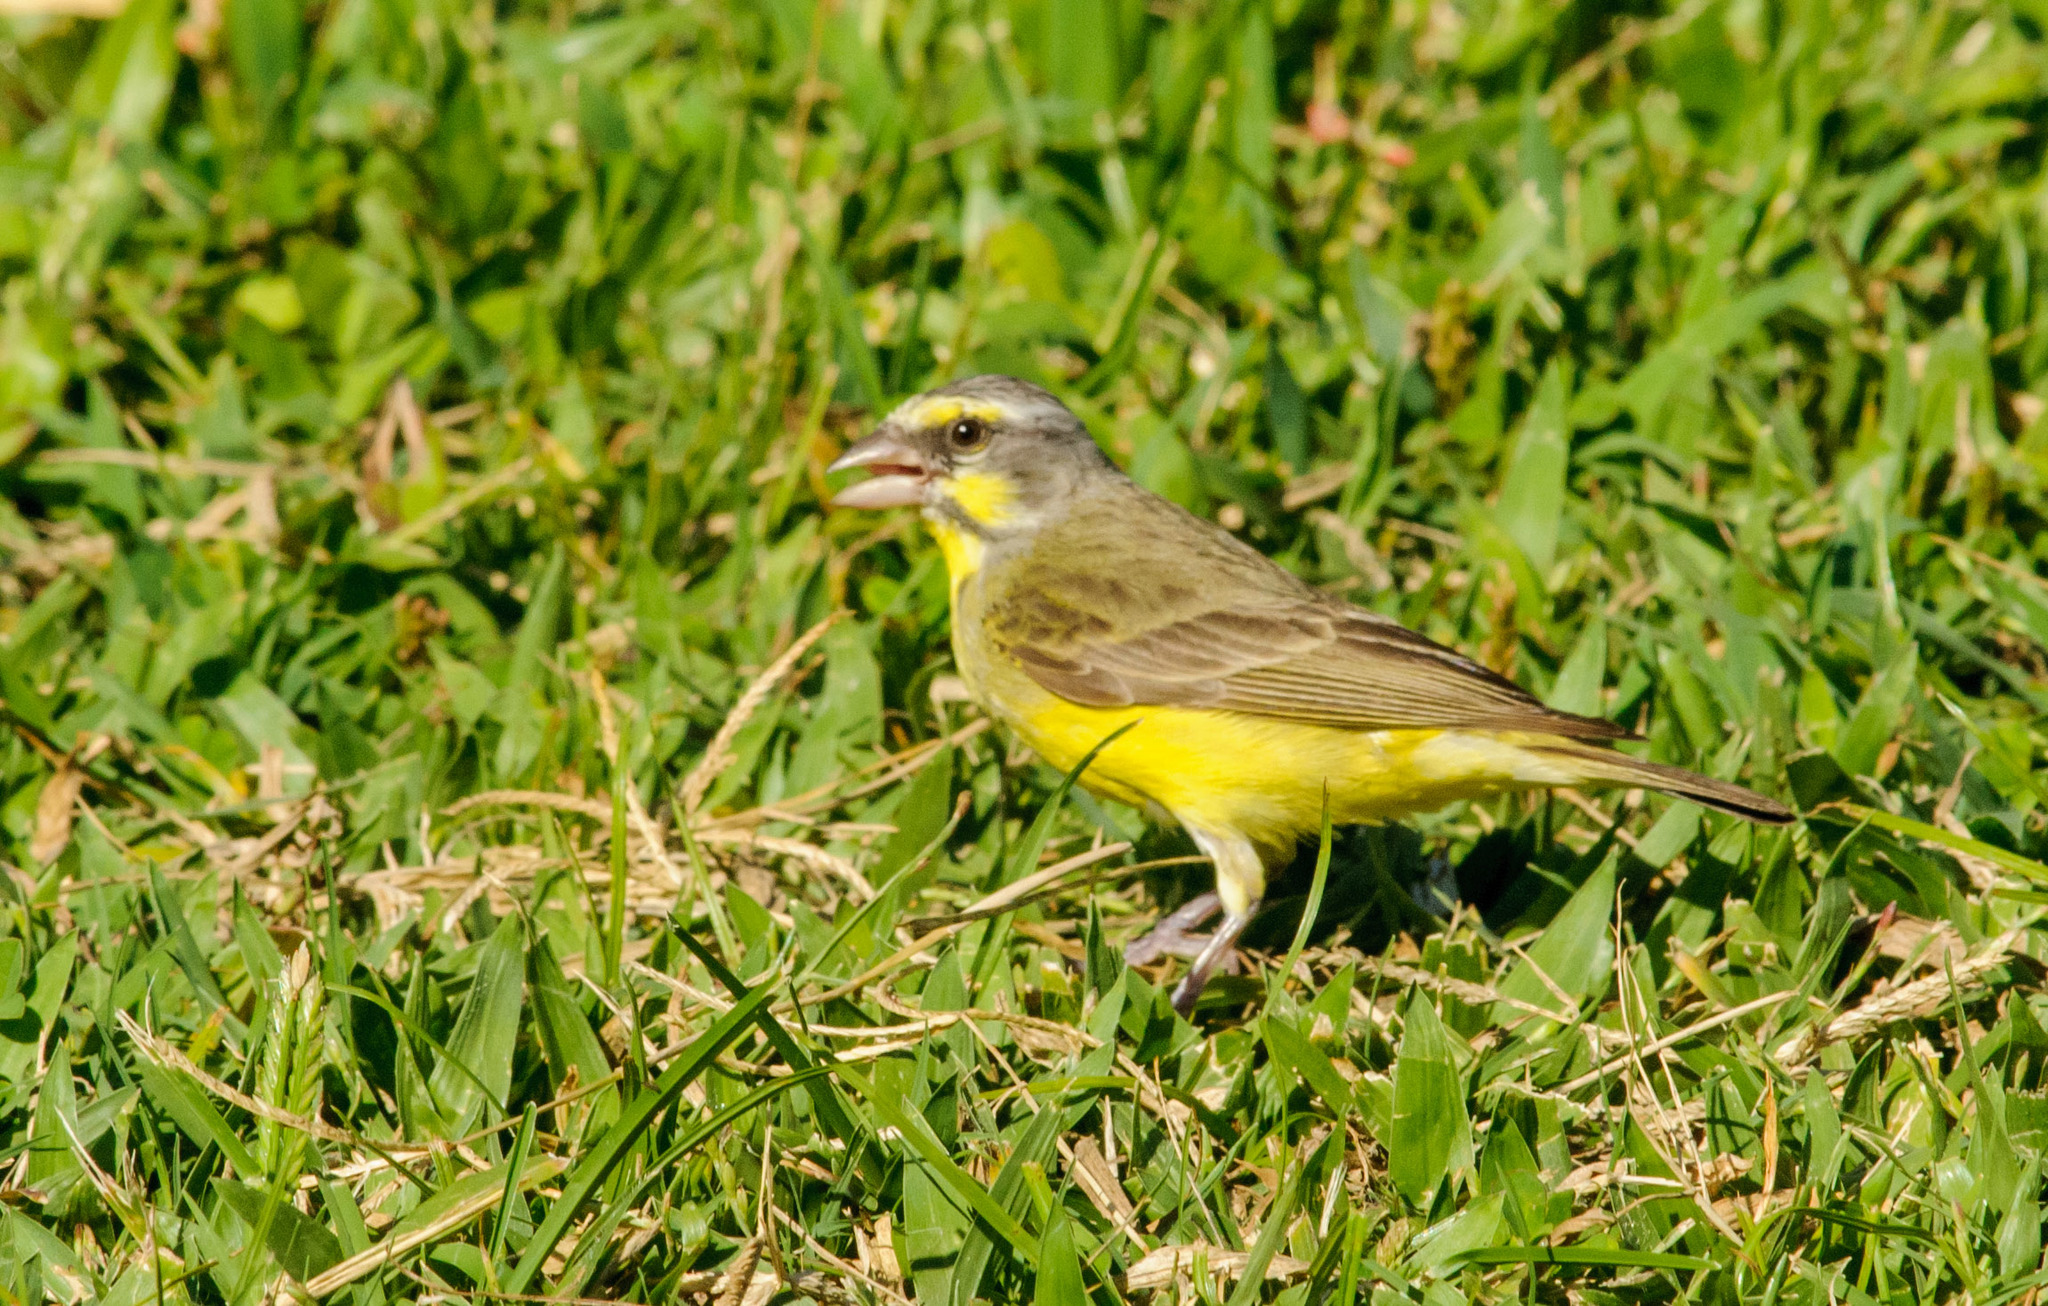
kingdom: Animalia
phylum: Chordata
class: Aves
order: Passeriformes
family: Fringillidae
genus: Crithagra
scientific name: Crithagra mozambica
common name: Yellow-fronted canary
